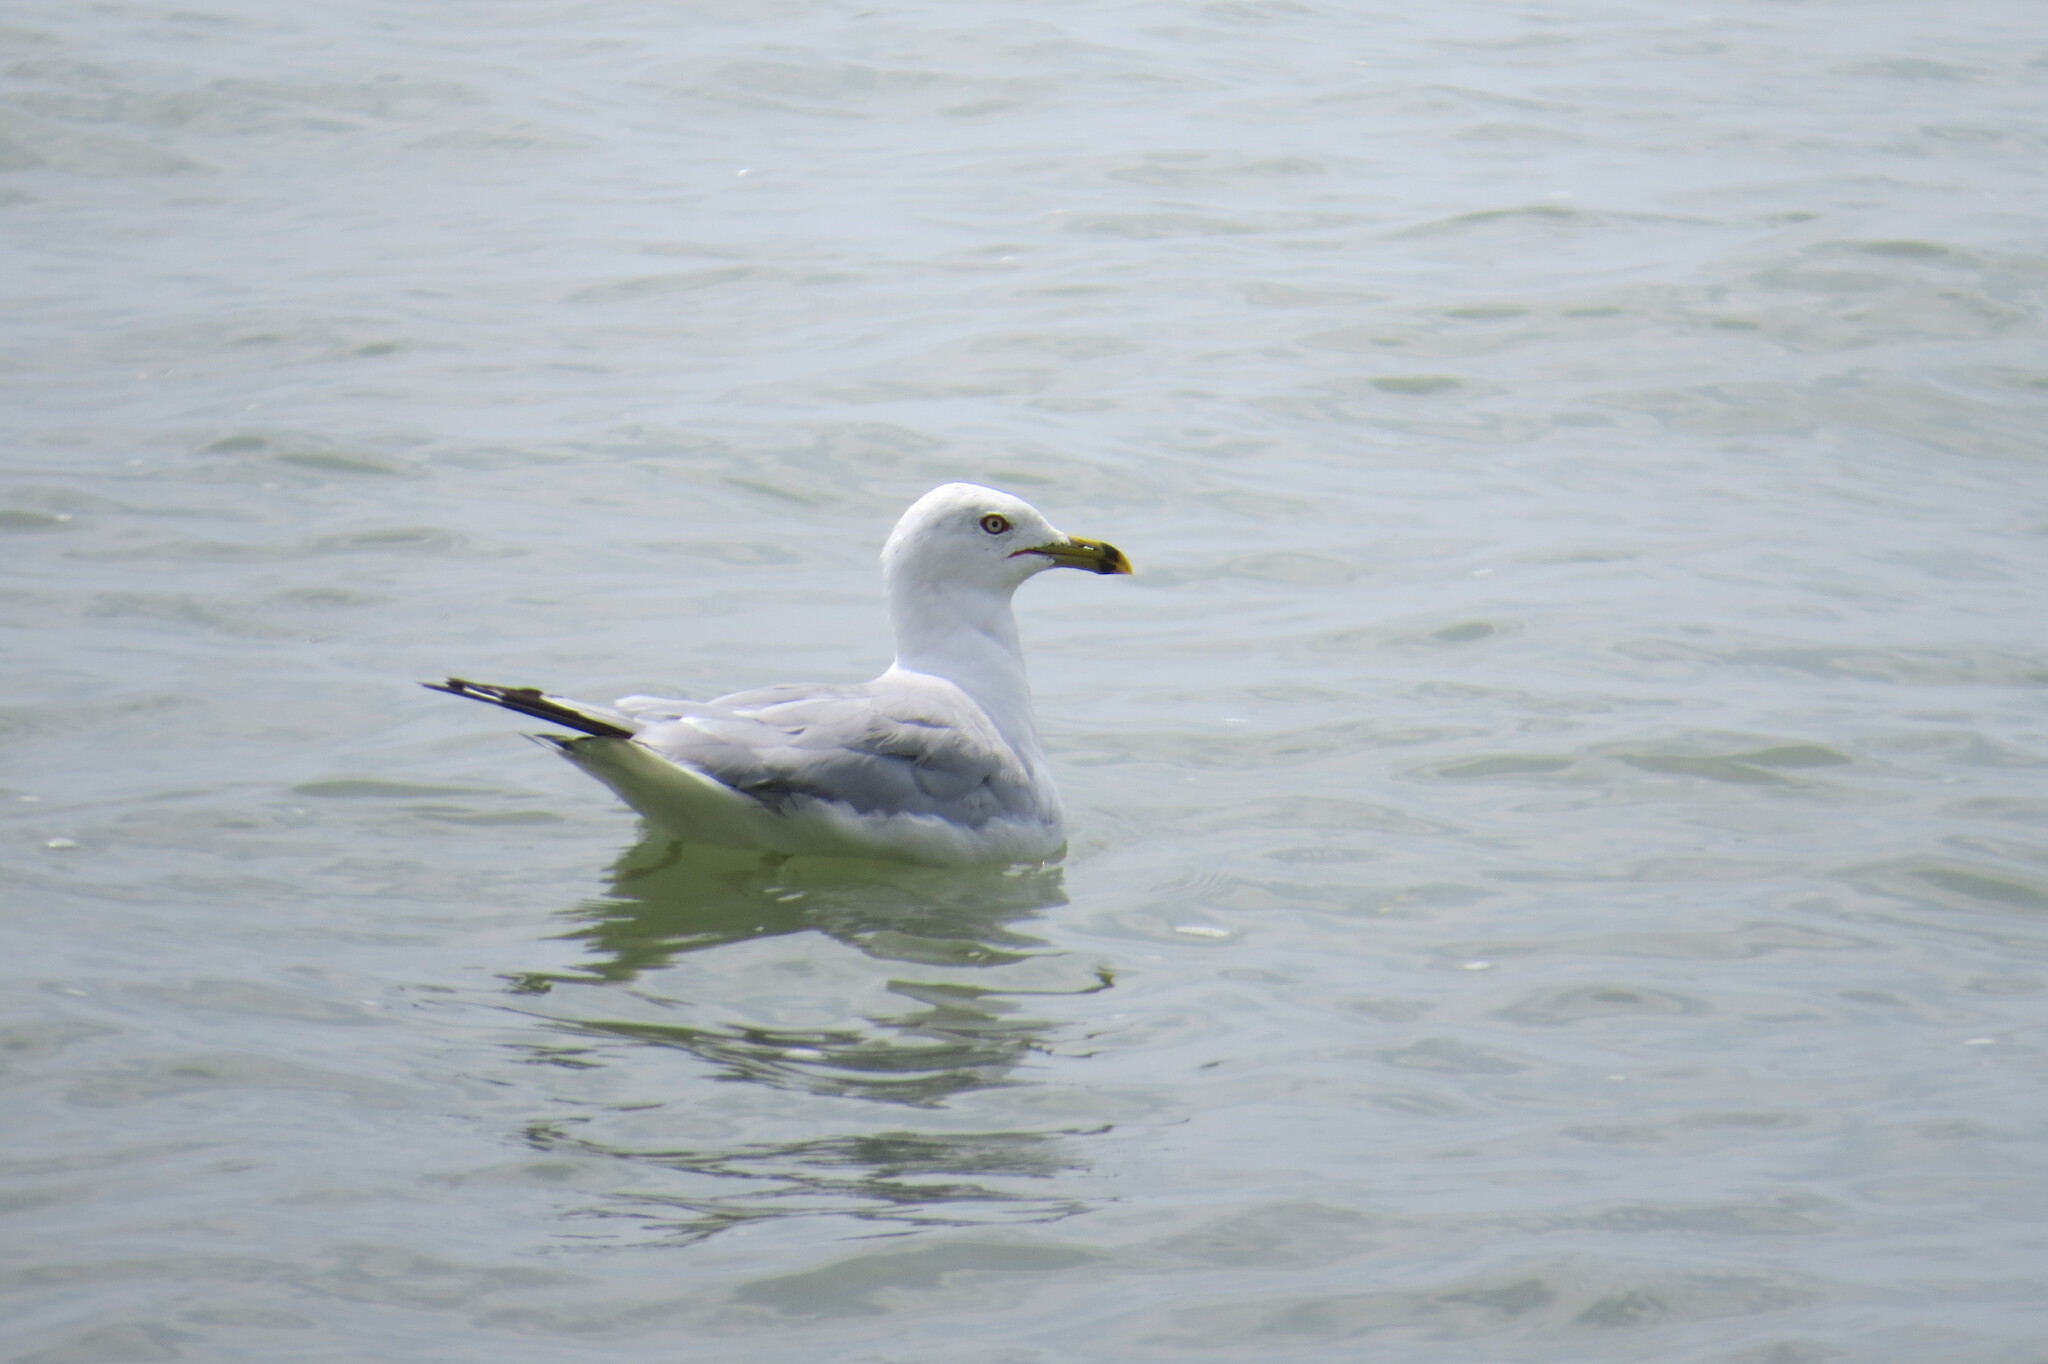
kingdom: Animalia
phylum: Chordata
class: Aves
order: Charadriiformes
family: Laridae
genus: Larus
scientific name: Larus delawarensis
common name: Ring-billed gull
